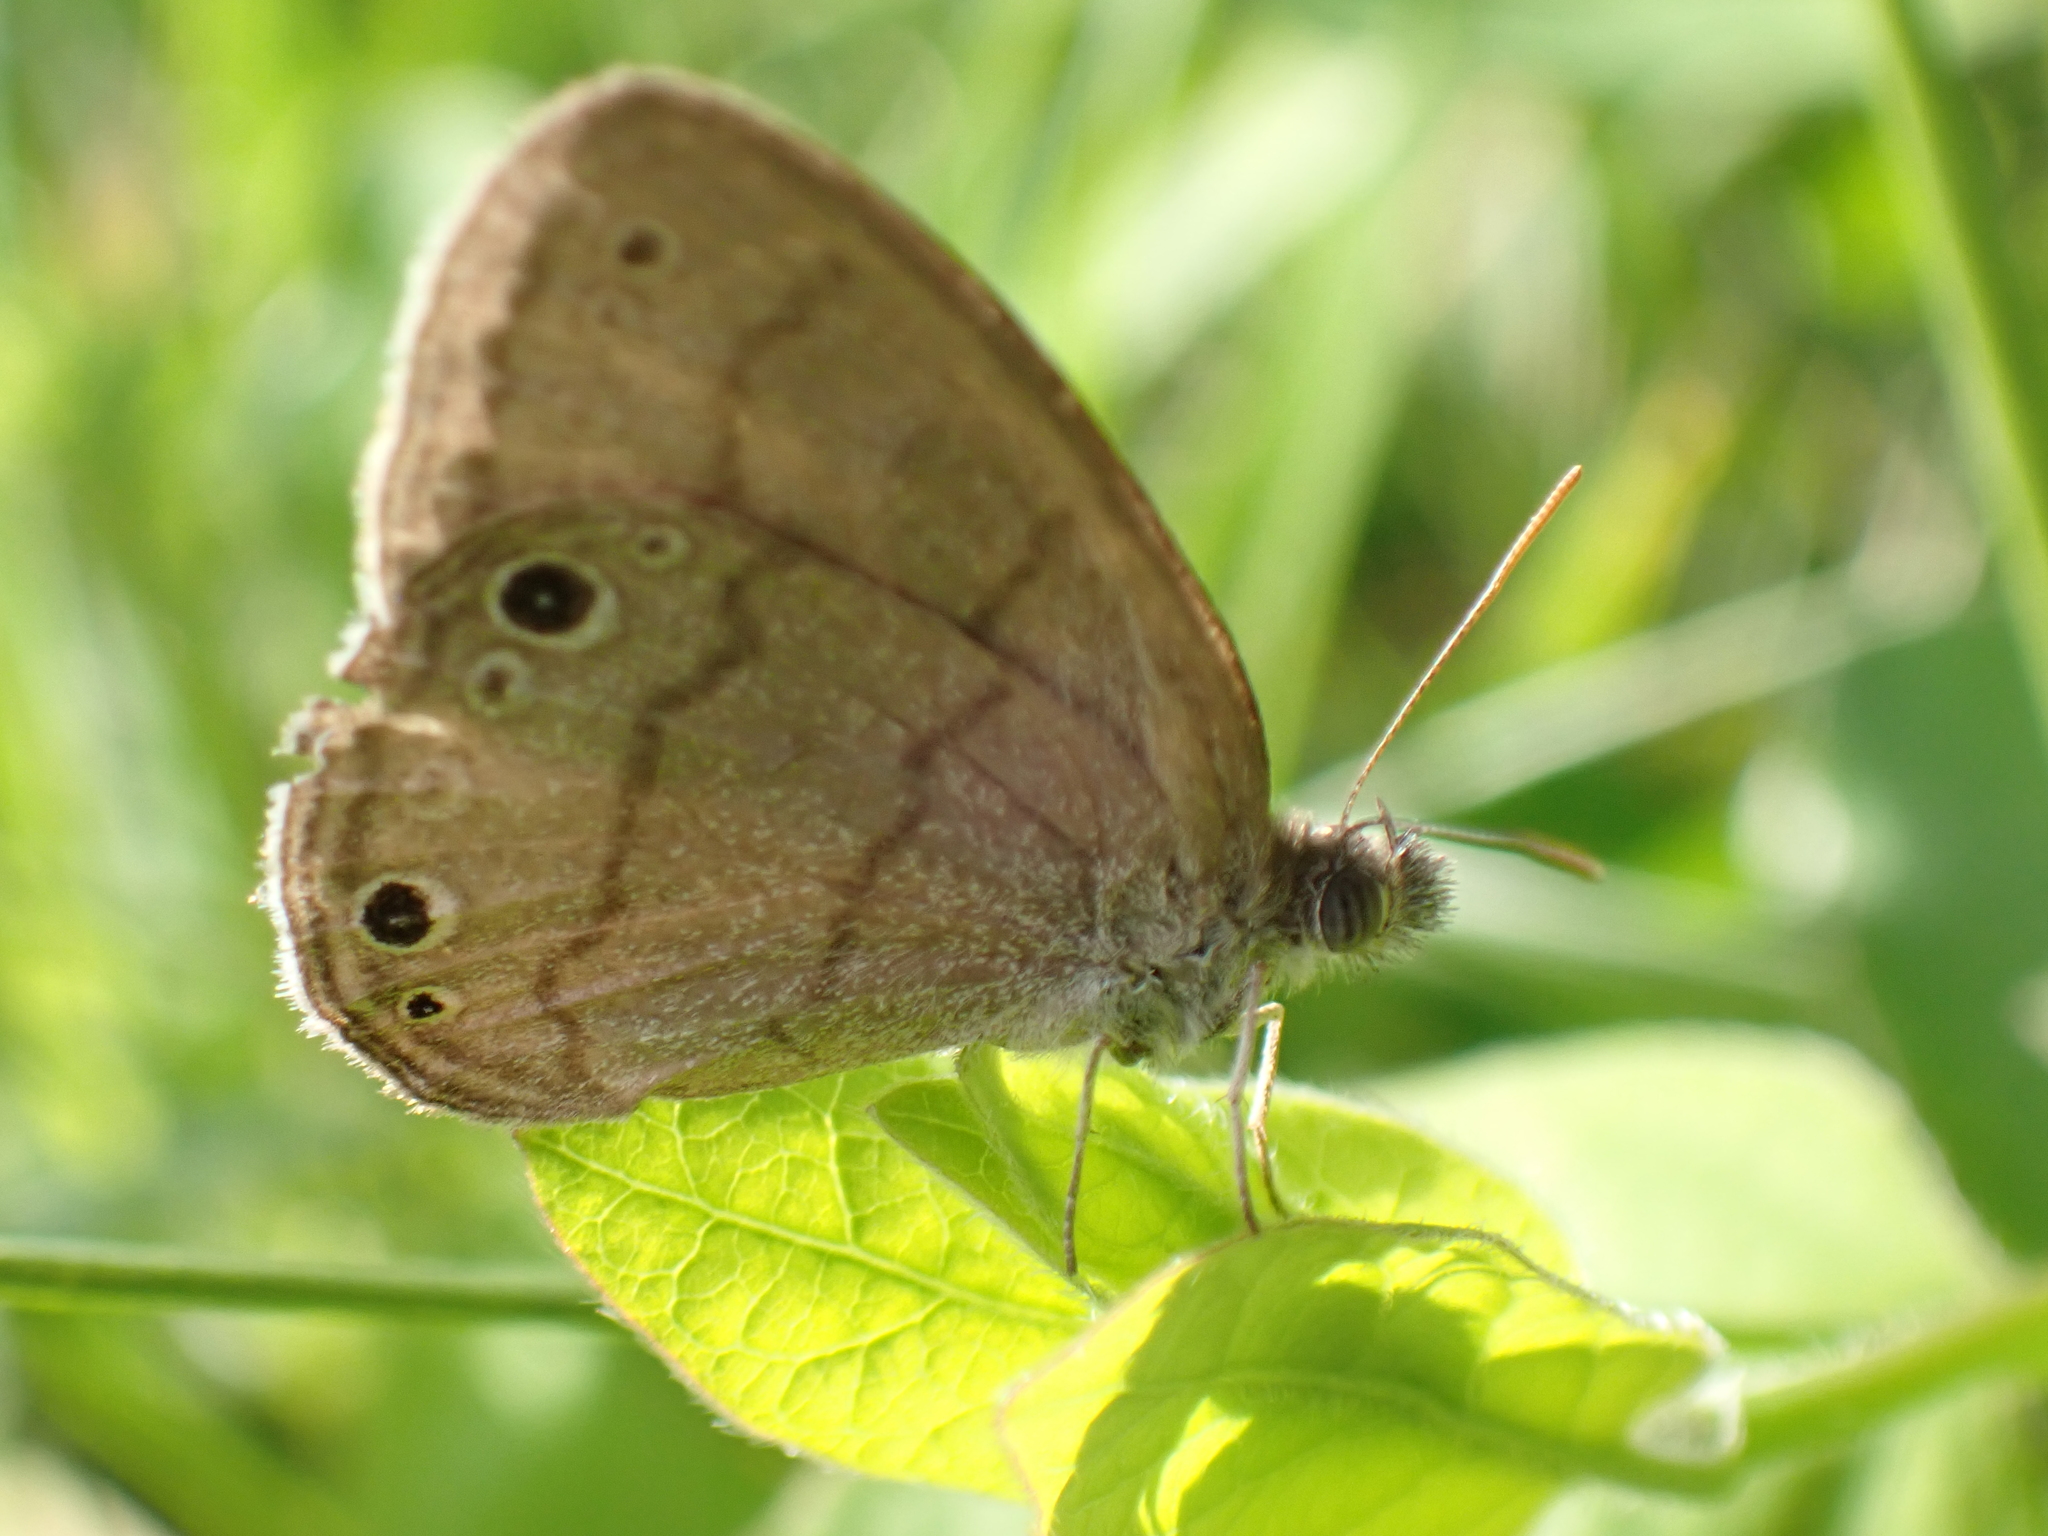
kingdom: Animalia
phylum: Arthropoda
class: Insecta
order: Lepidoptera
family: Nymphalidae
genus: Hermeuptychia
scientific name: Hermeuptychia hermes
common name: Hermes satyr
